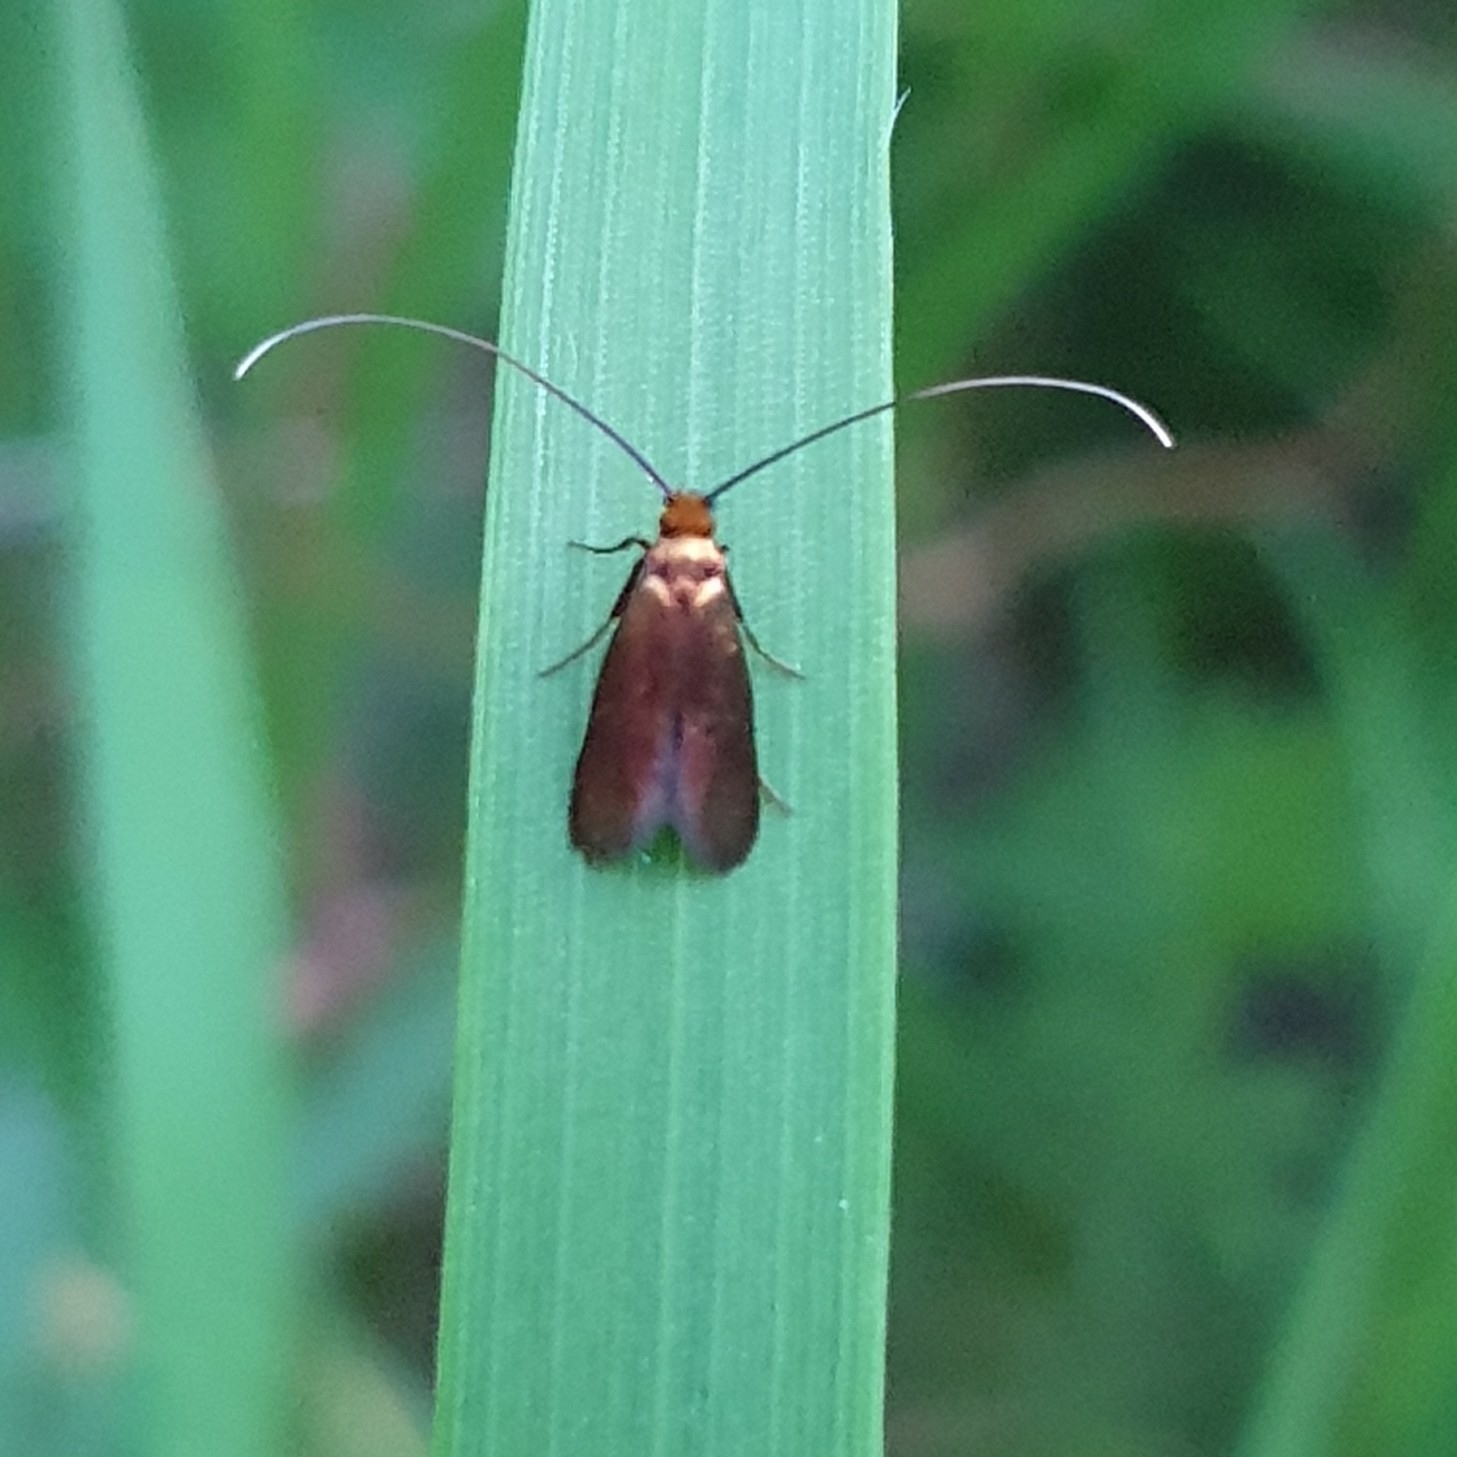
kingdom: Animalia
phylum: Arthropoda
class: Insecta
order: Lepidoptera
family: Adelidae
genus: Cauchas
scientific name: Cauchas rufimitrella
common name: Meadow long-horn
